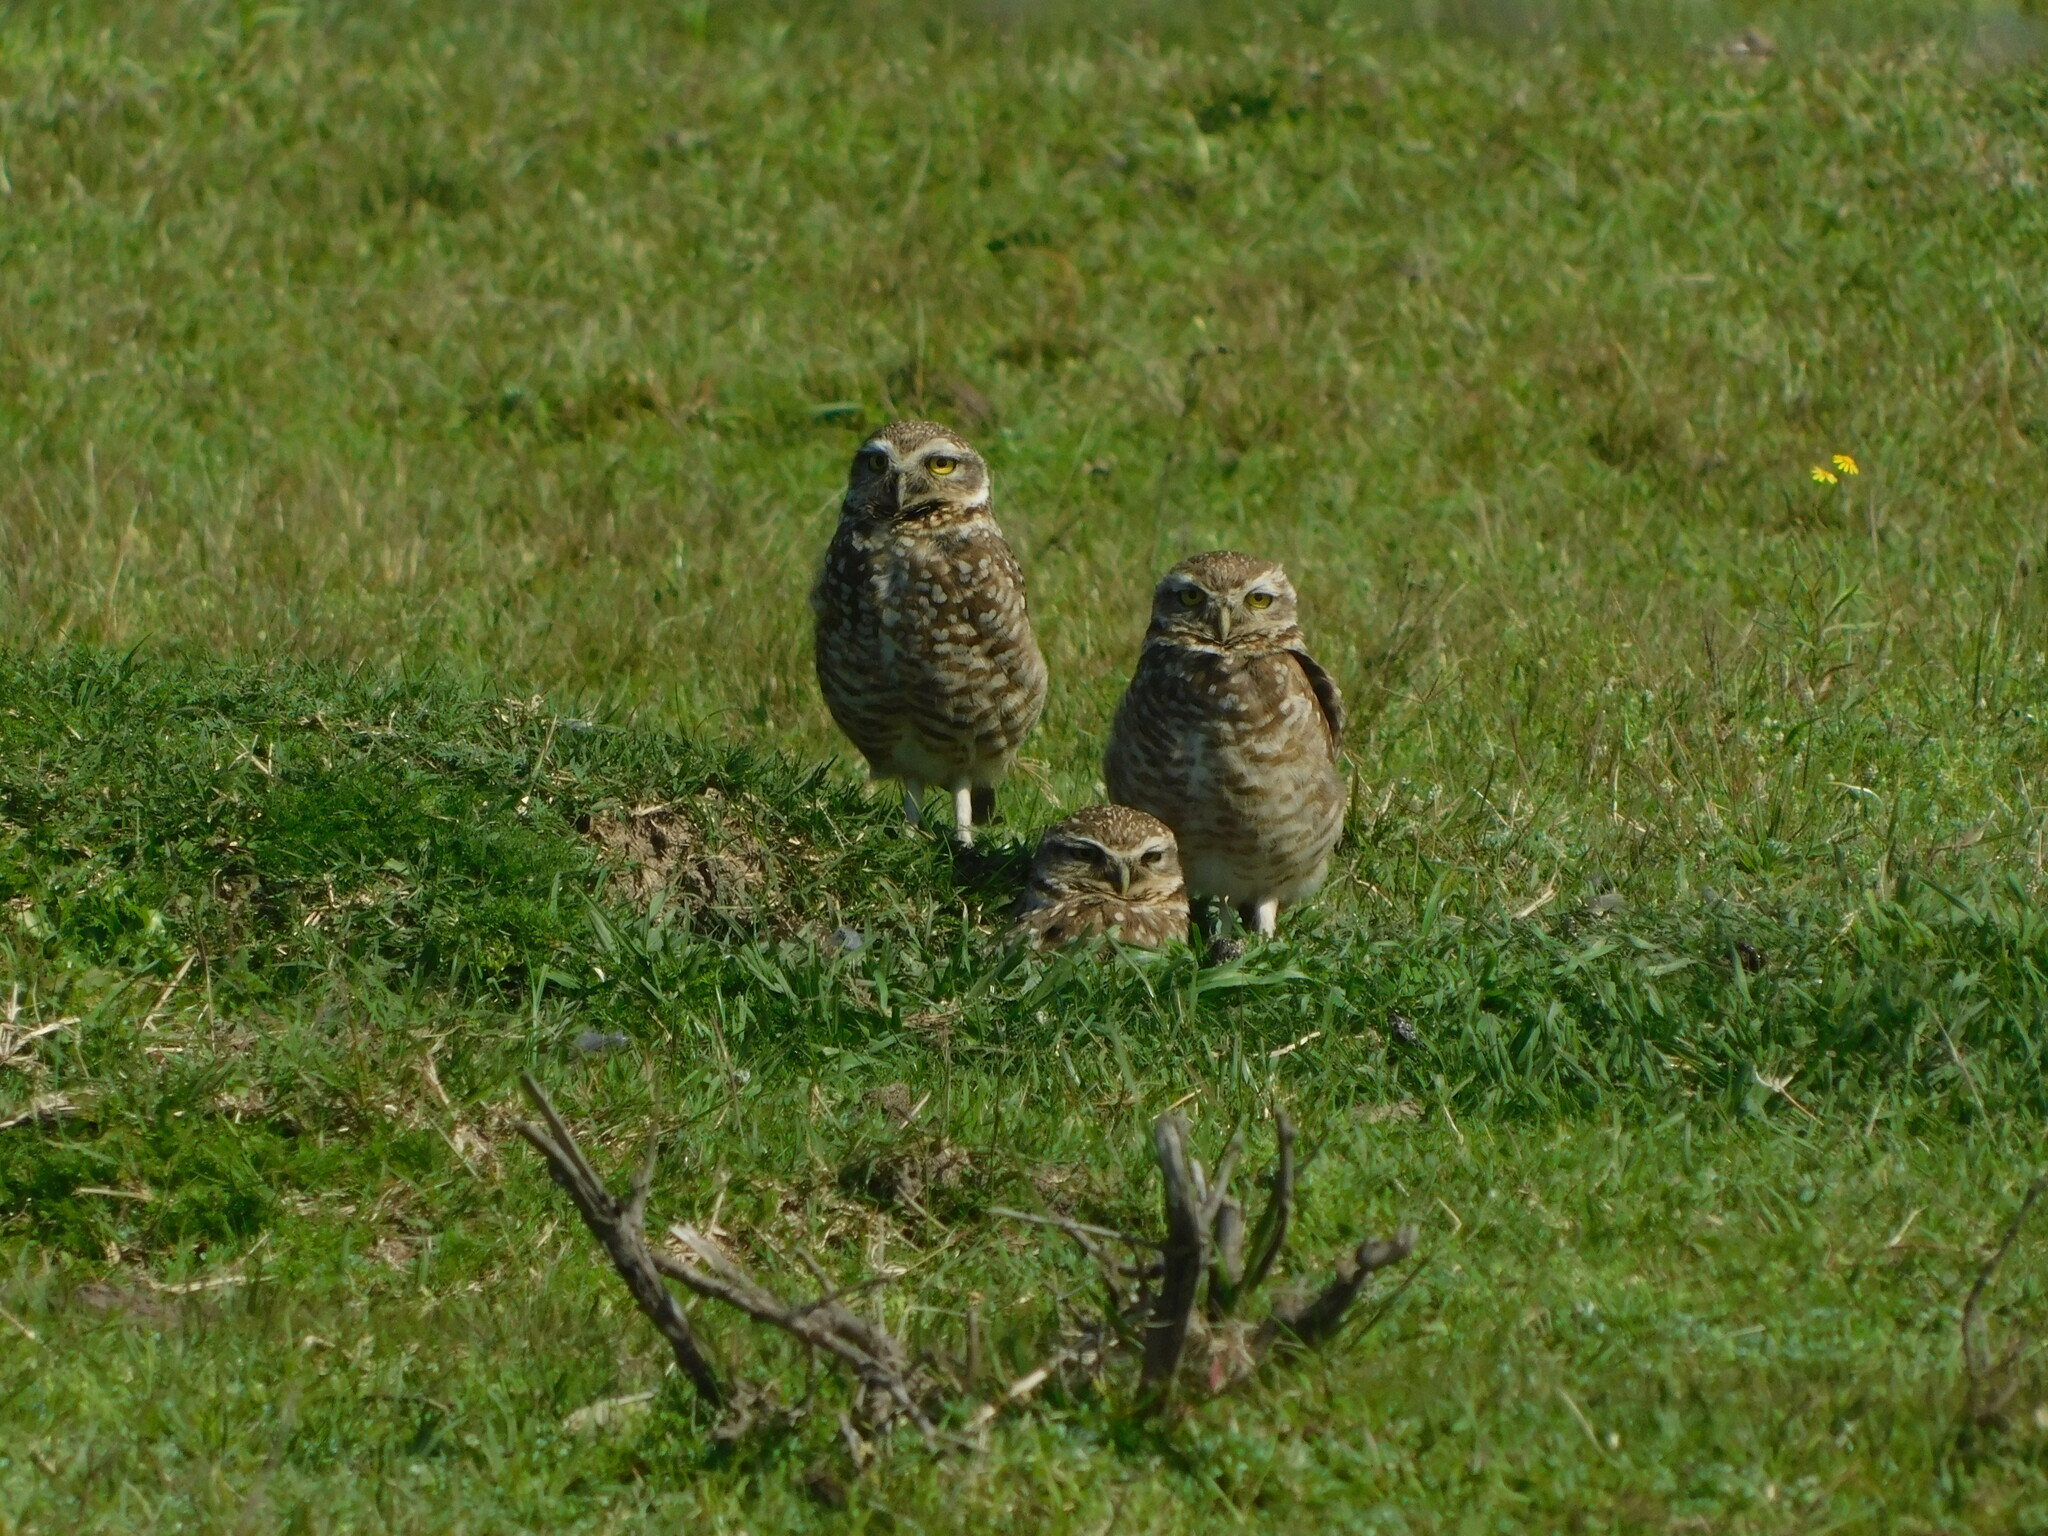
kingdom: Animalia
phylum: Chordata
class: Aves
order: Strigiformes
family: Strigidae
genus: Athene
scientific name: Athene cunicularia
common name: Burrowing owl
